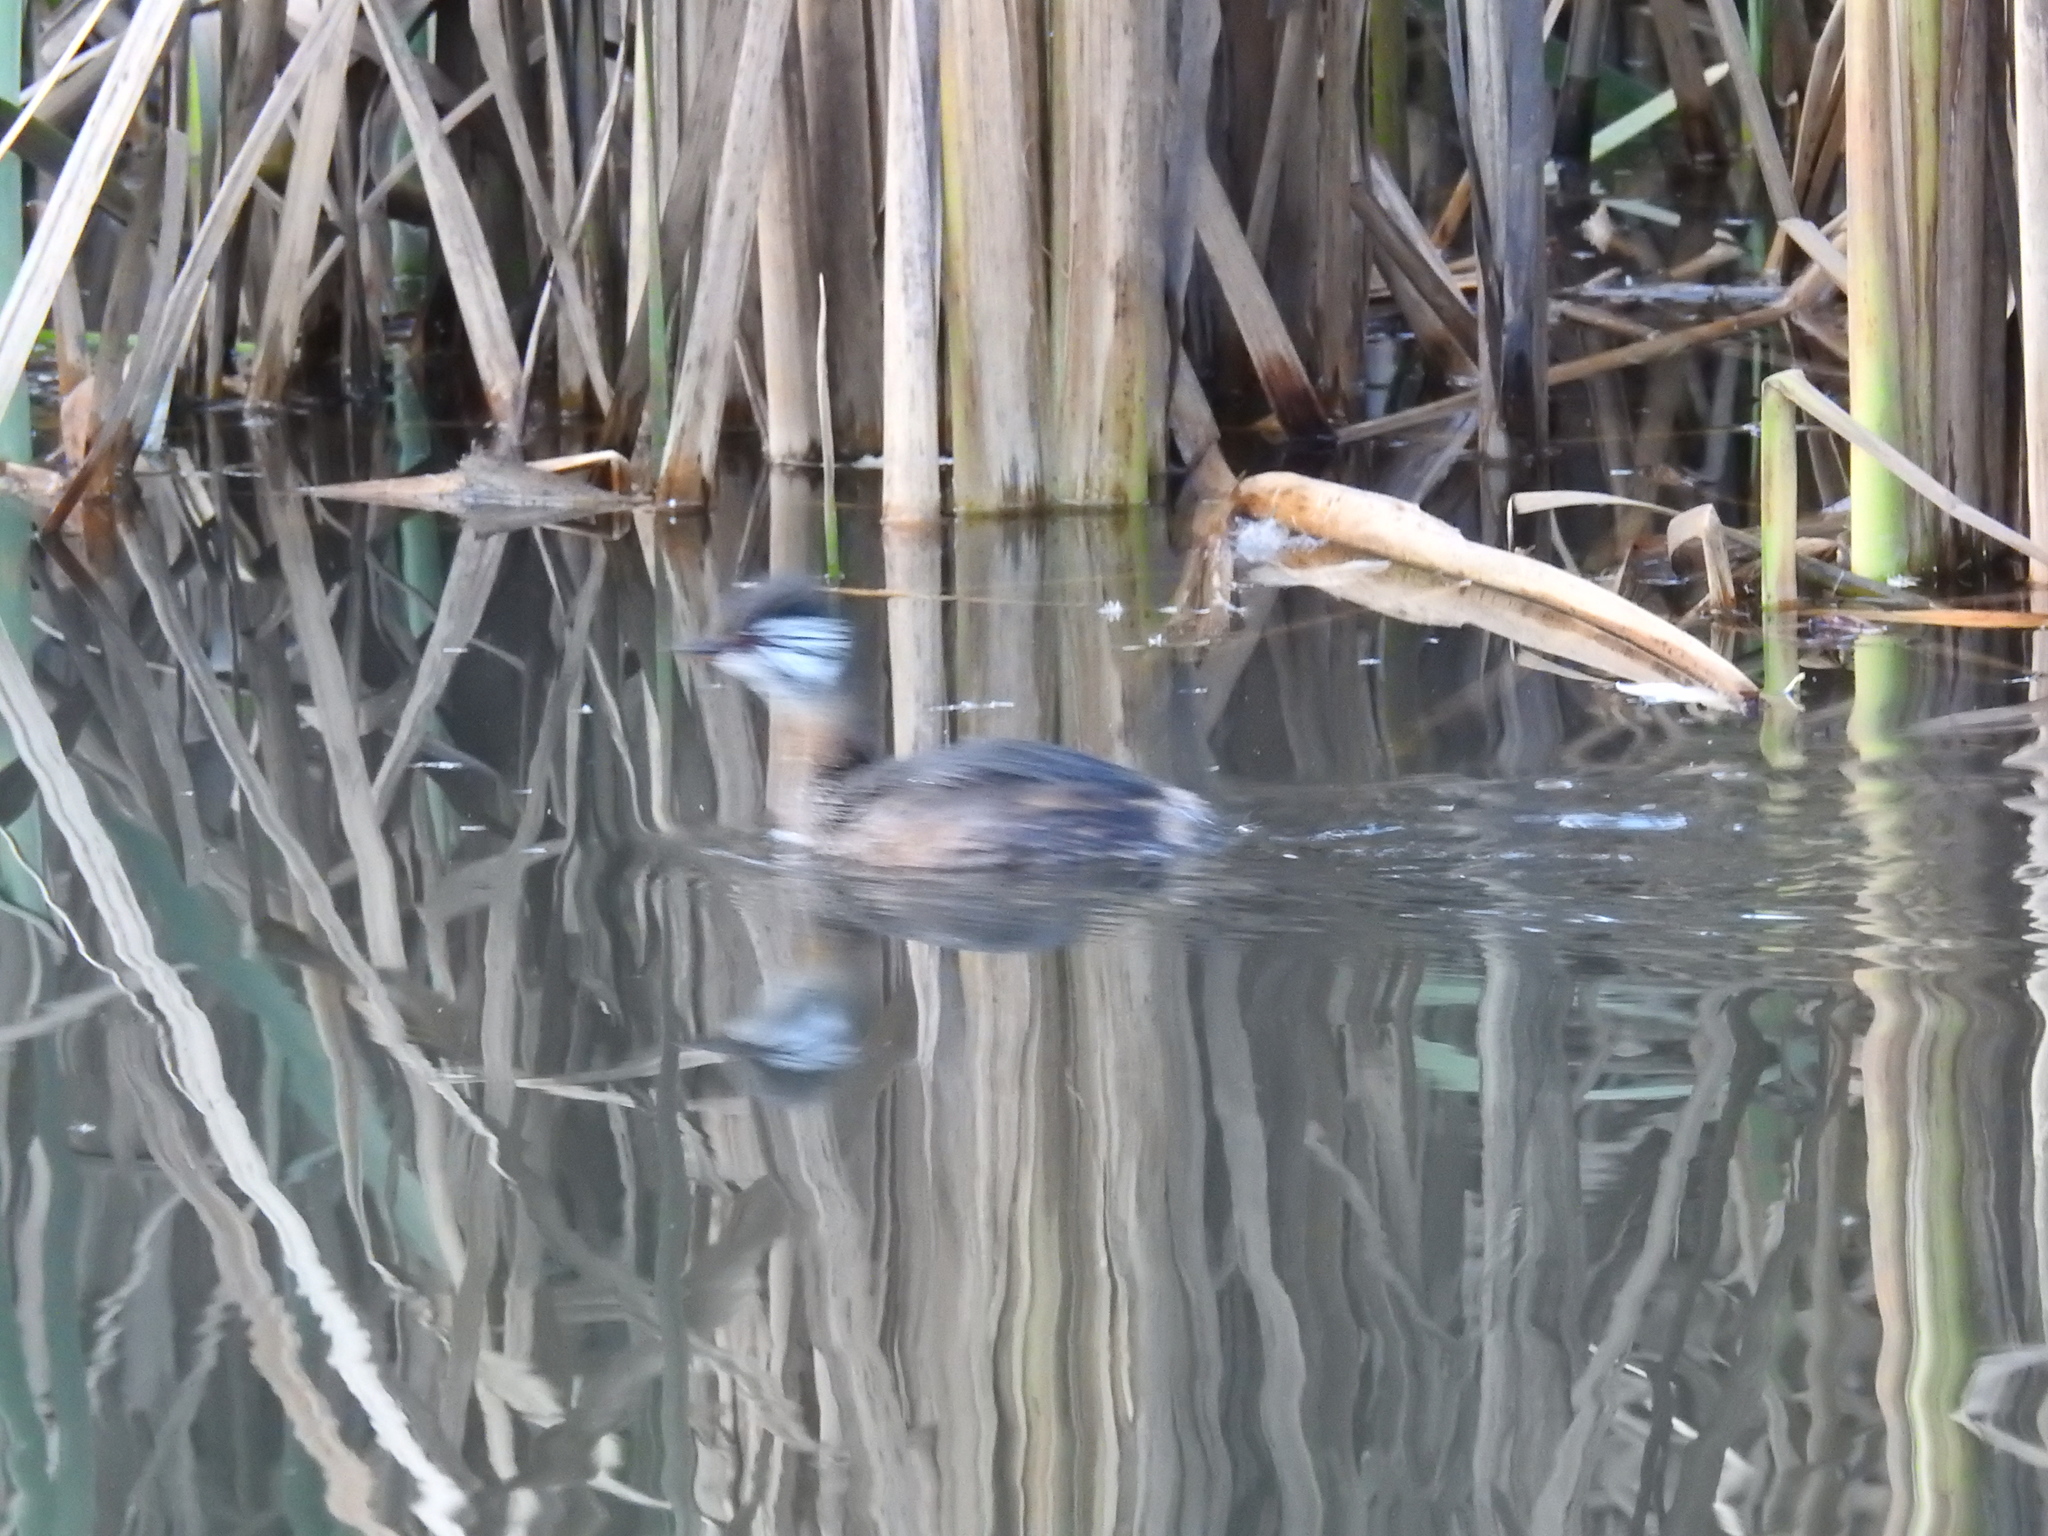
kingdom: Animalia
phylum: Chordata
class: Aves
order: Podicipediformes
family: Podicipedidae
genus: Rollandia
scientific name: Rollandia rolland
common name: White-tufted grebe
